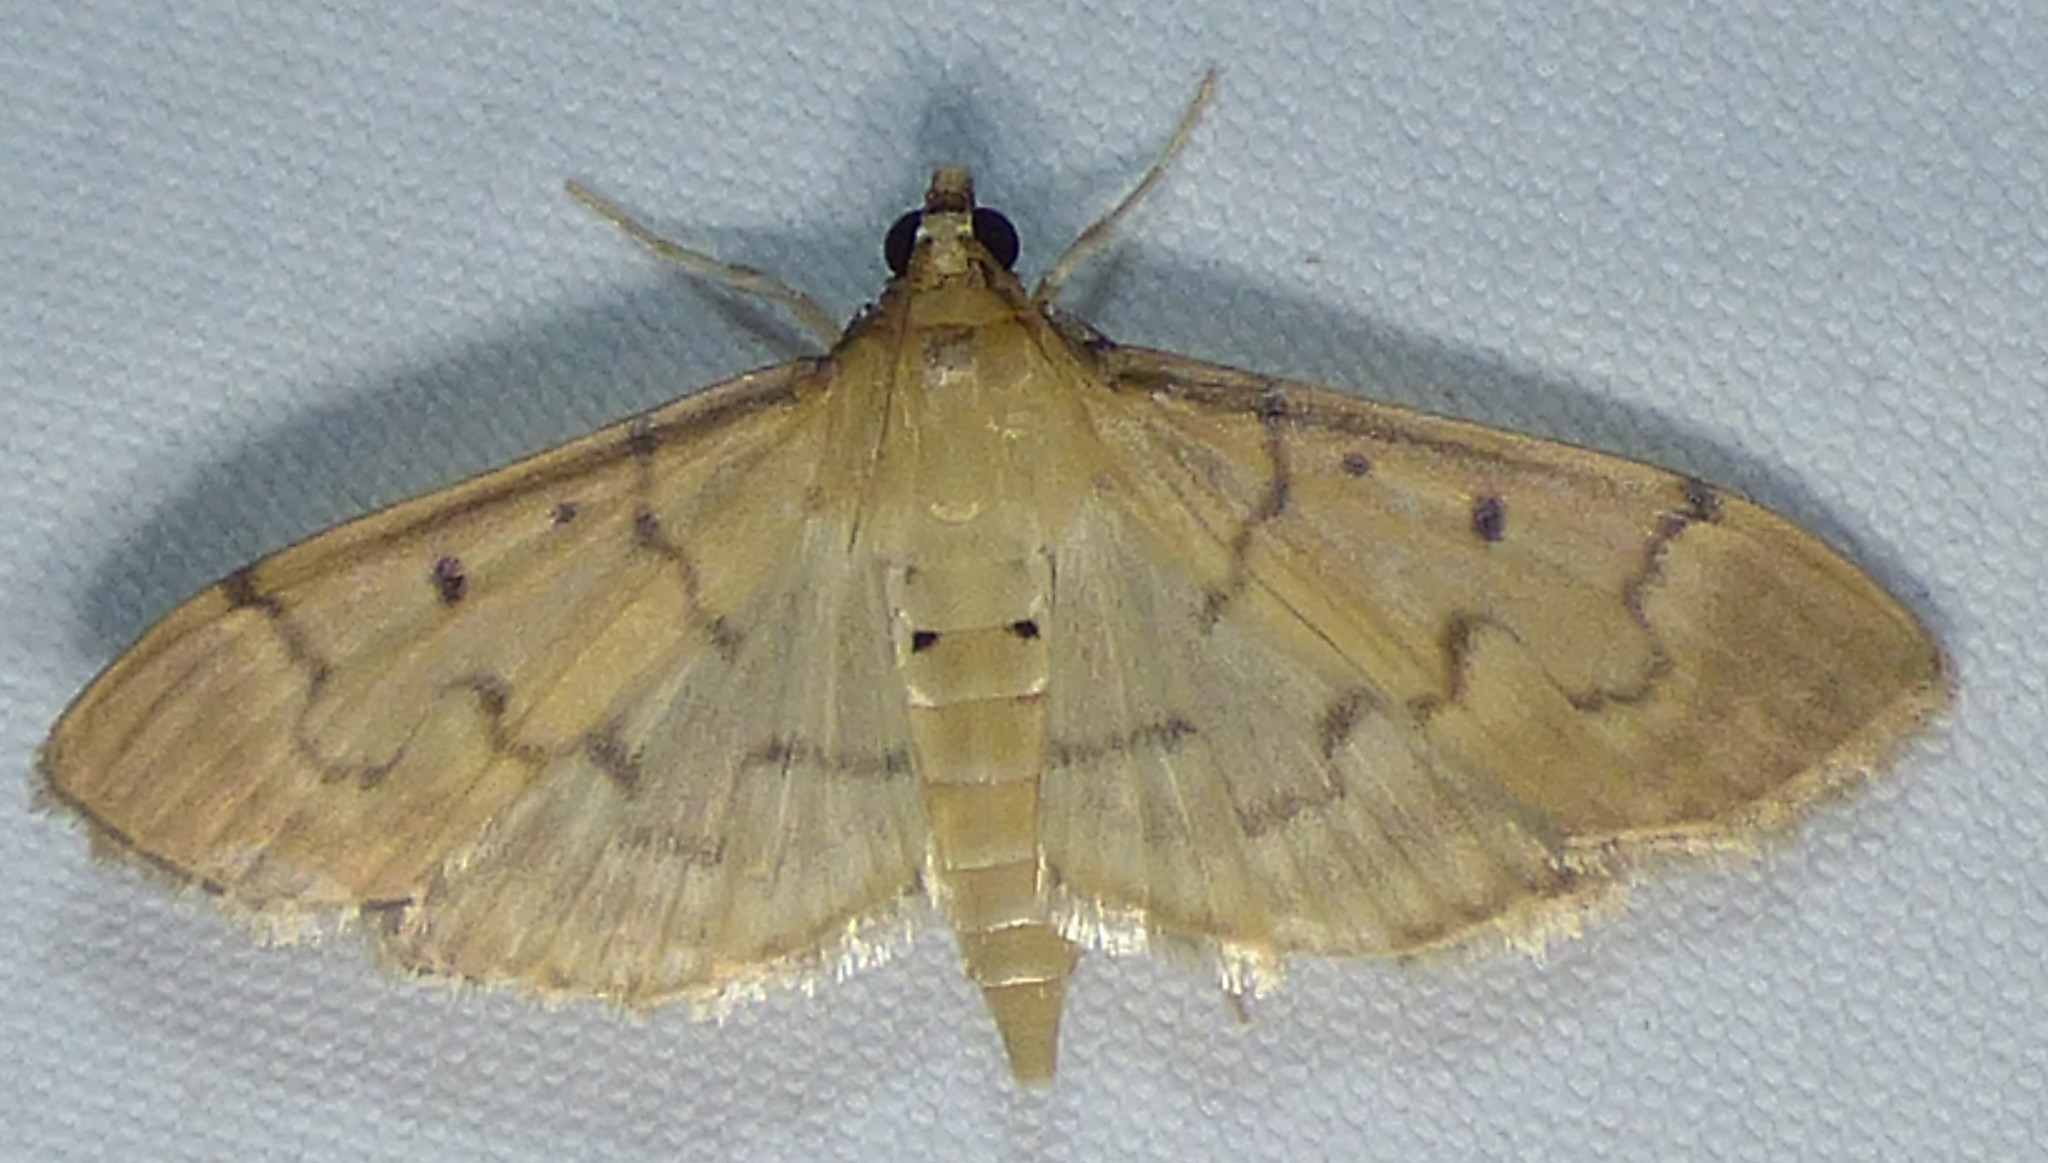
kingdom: Animalia
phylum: Arthropoda
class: Insecta
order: Lepidoptera
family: Crambidae
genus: Herpetogramma
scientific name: Herpetogramma bipunctalis
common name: Southern beet webworm
